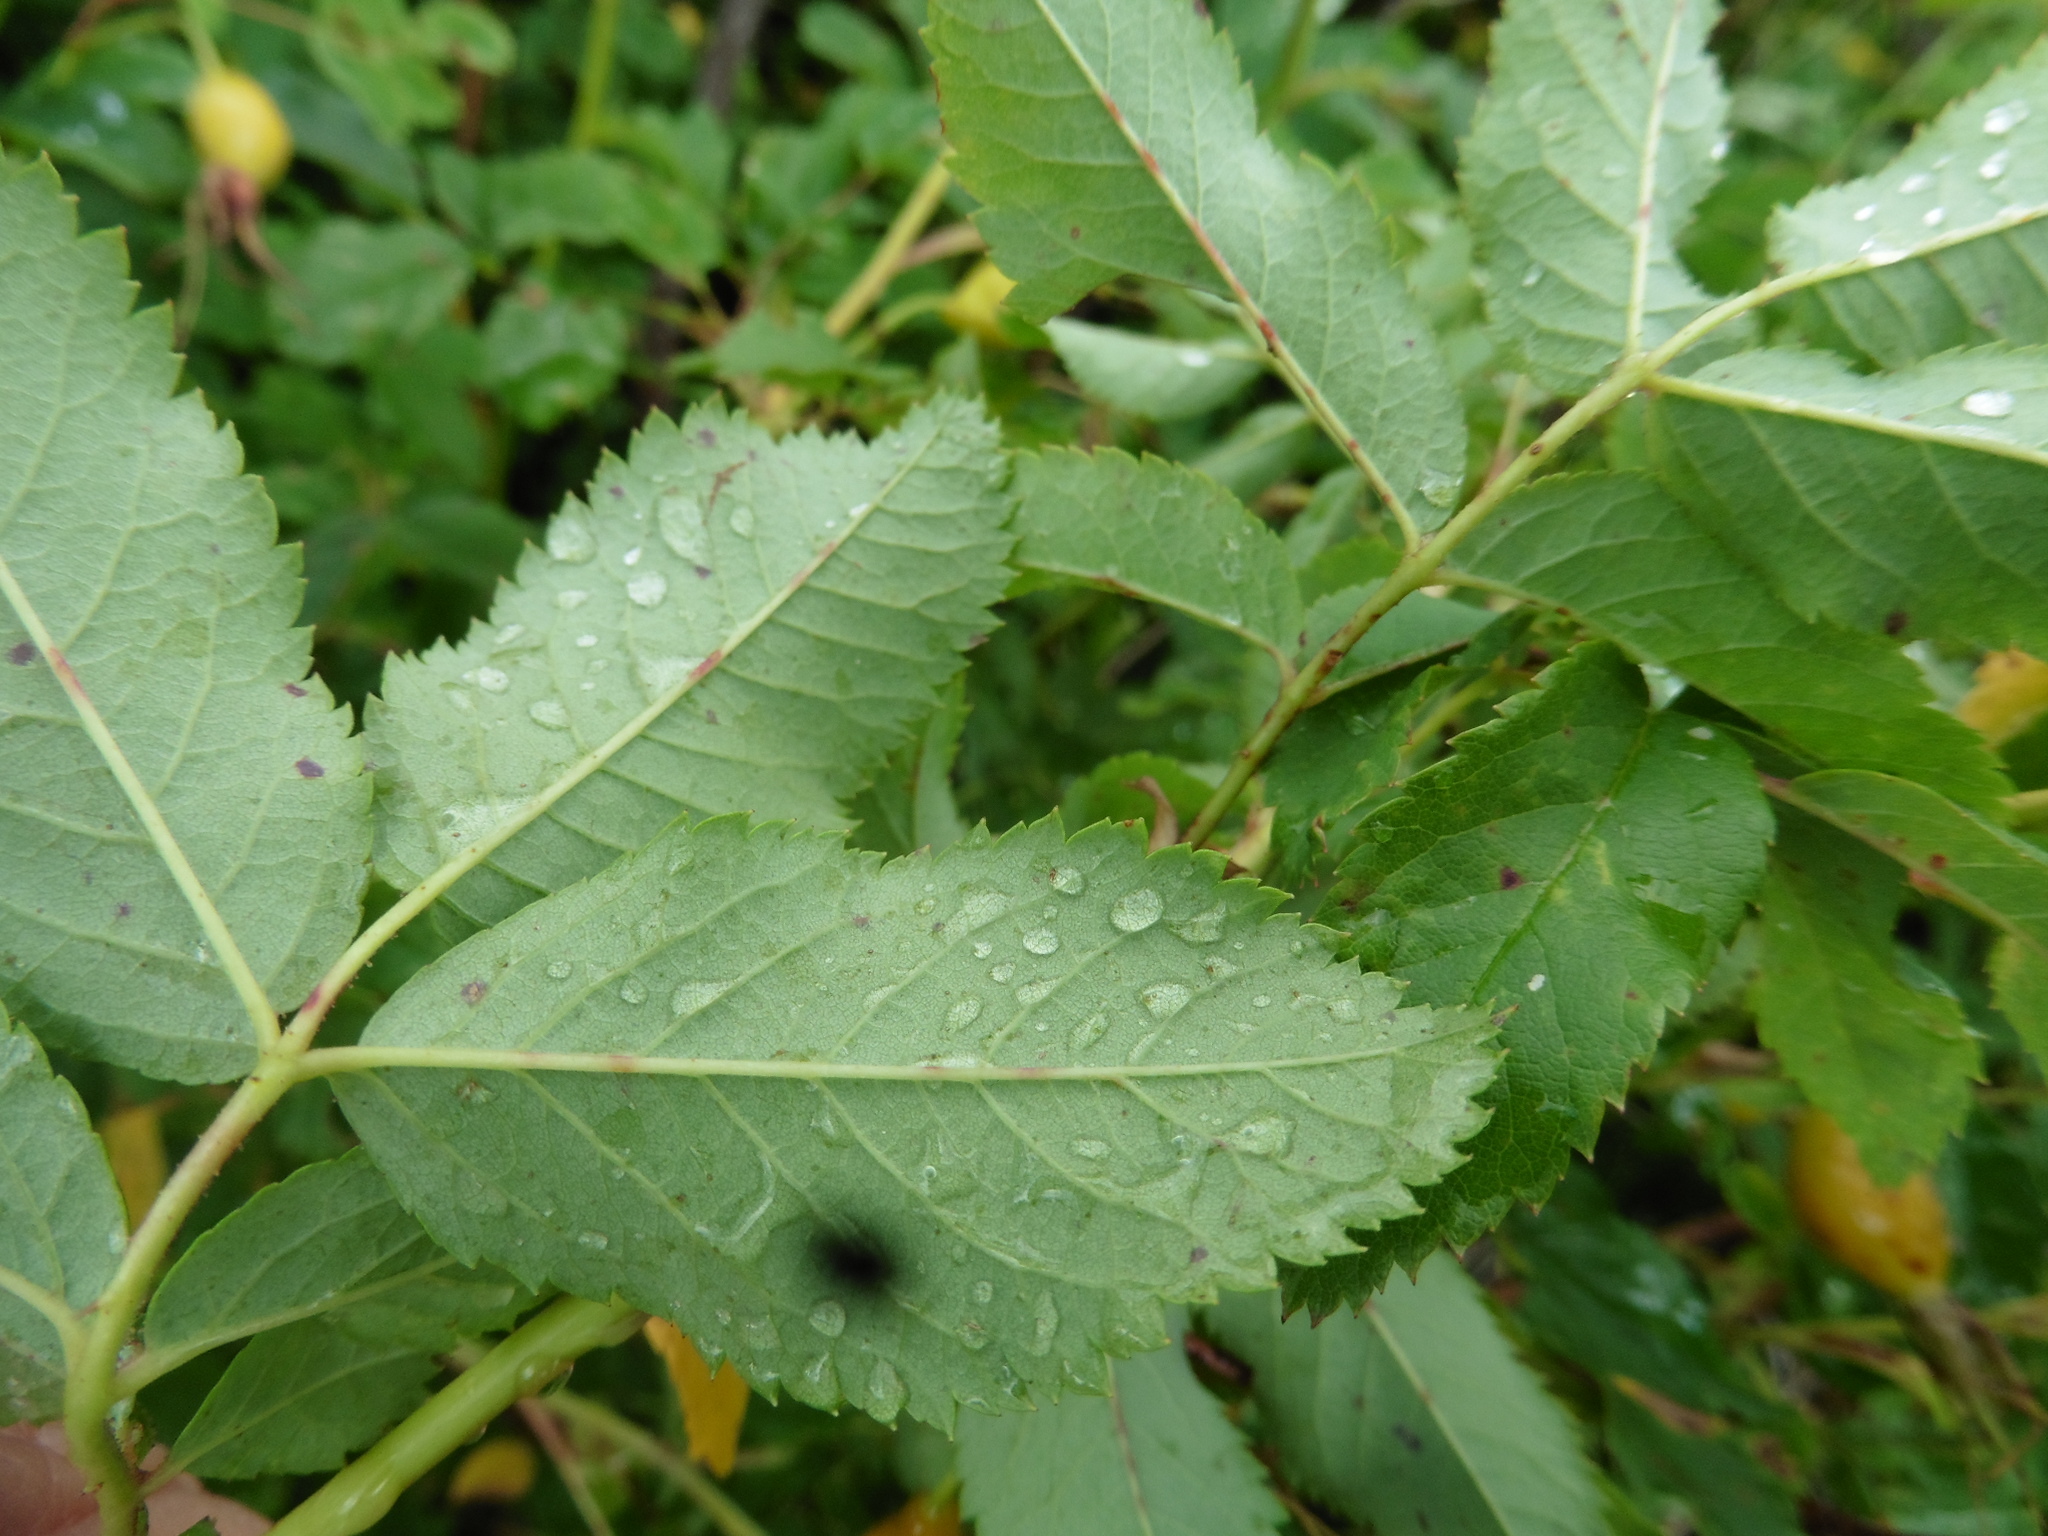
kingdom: Plantae
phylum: Tracheophyta
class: Magnoliopsida
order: Rosales
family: Rosaceae
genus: Rosa
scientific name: Rosa glabrifolia
